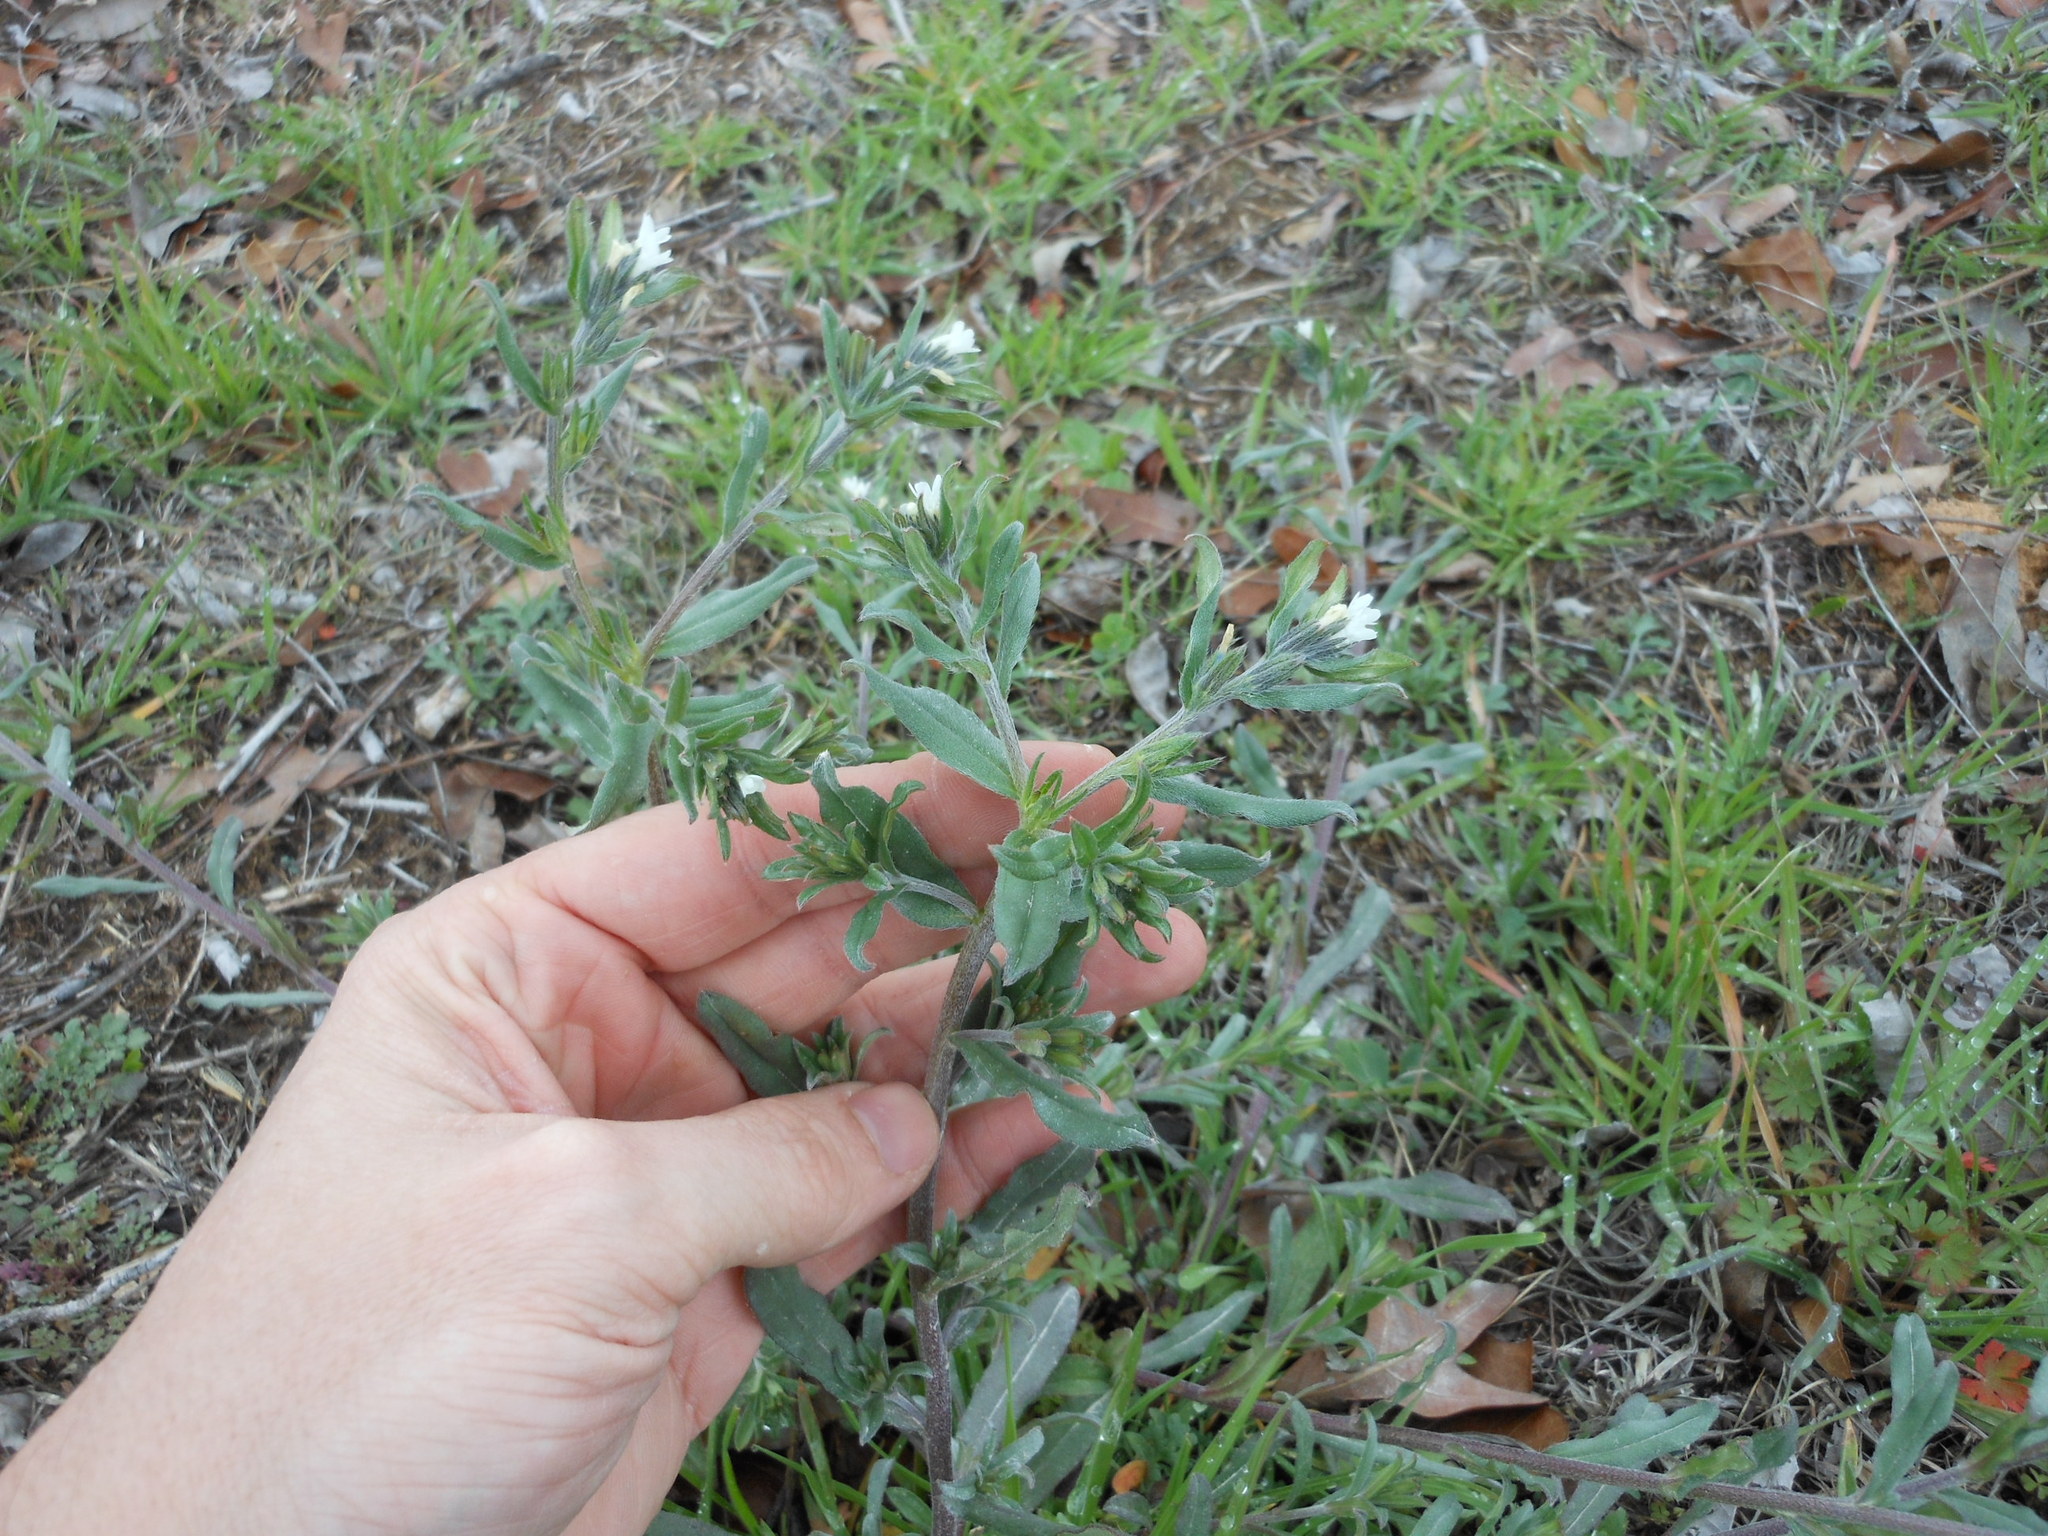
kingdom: Plantae
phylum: Tracheophyta
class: Magnoliopsida
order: Boraginales
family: Boraginaceae
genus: Buglossoides
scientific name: Buglossoides arvensis
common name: Corn gromwell
